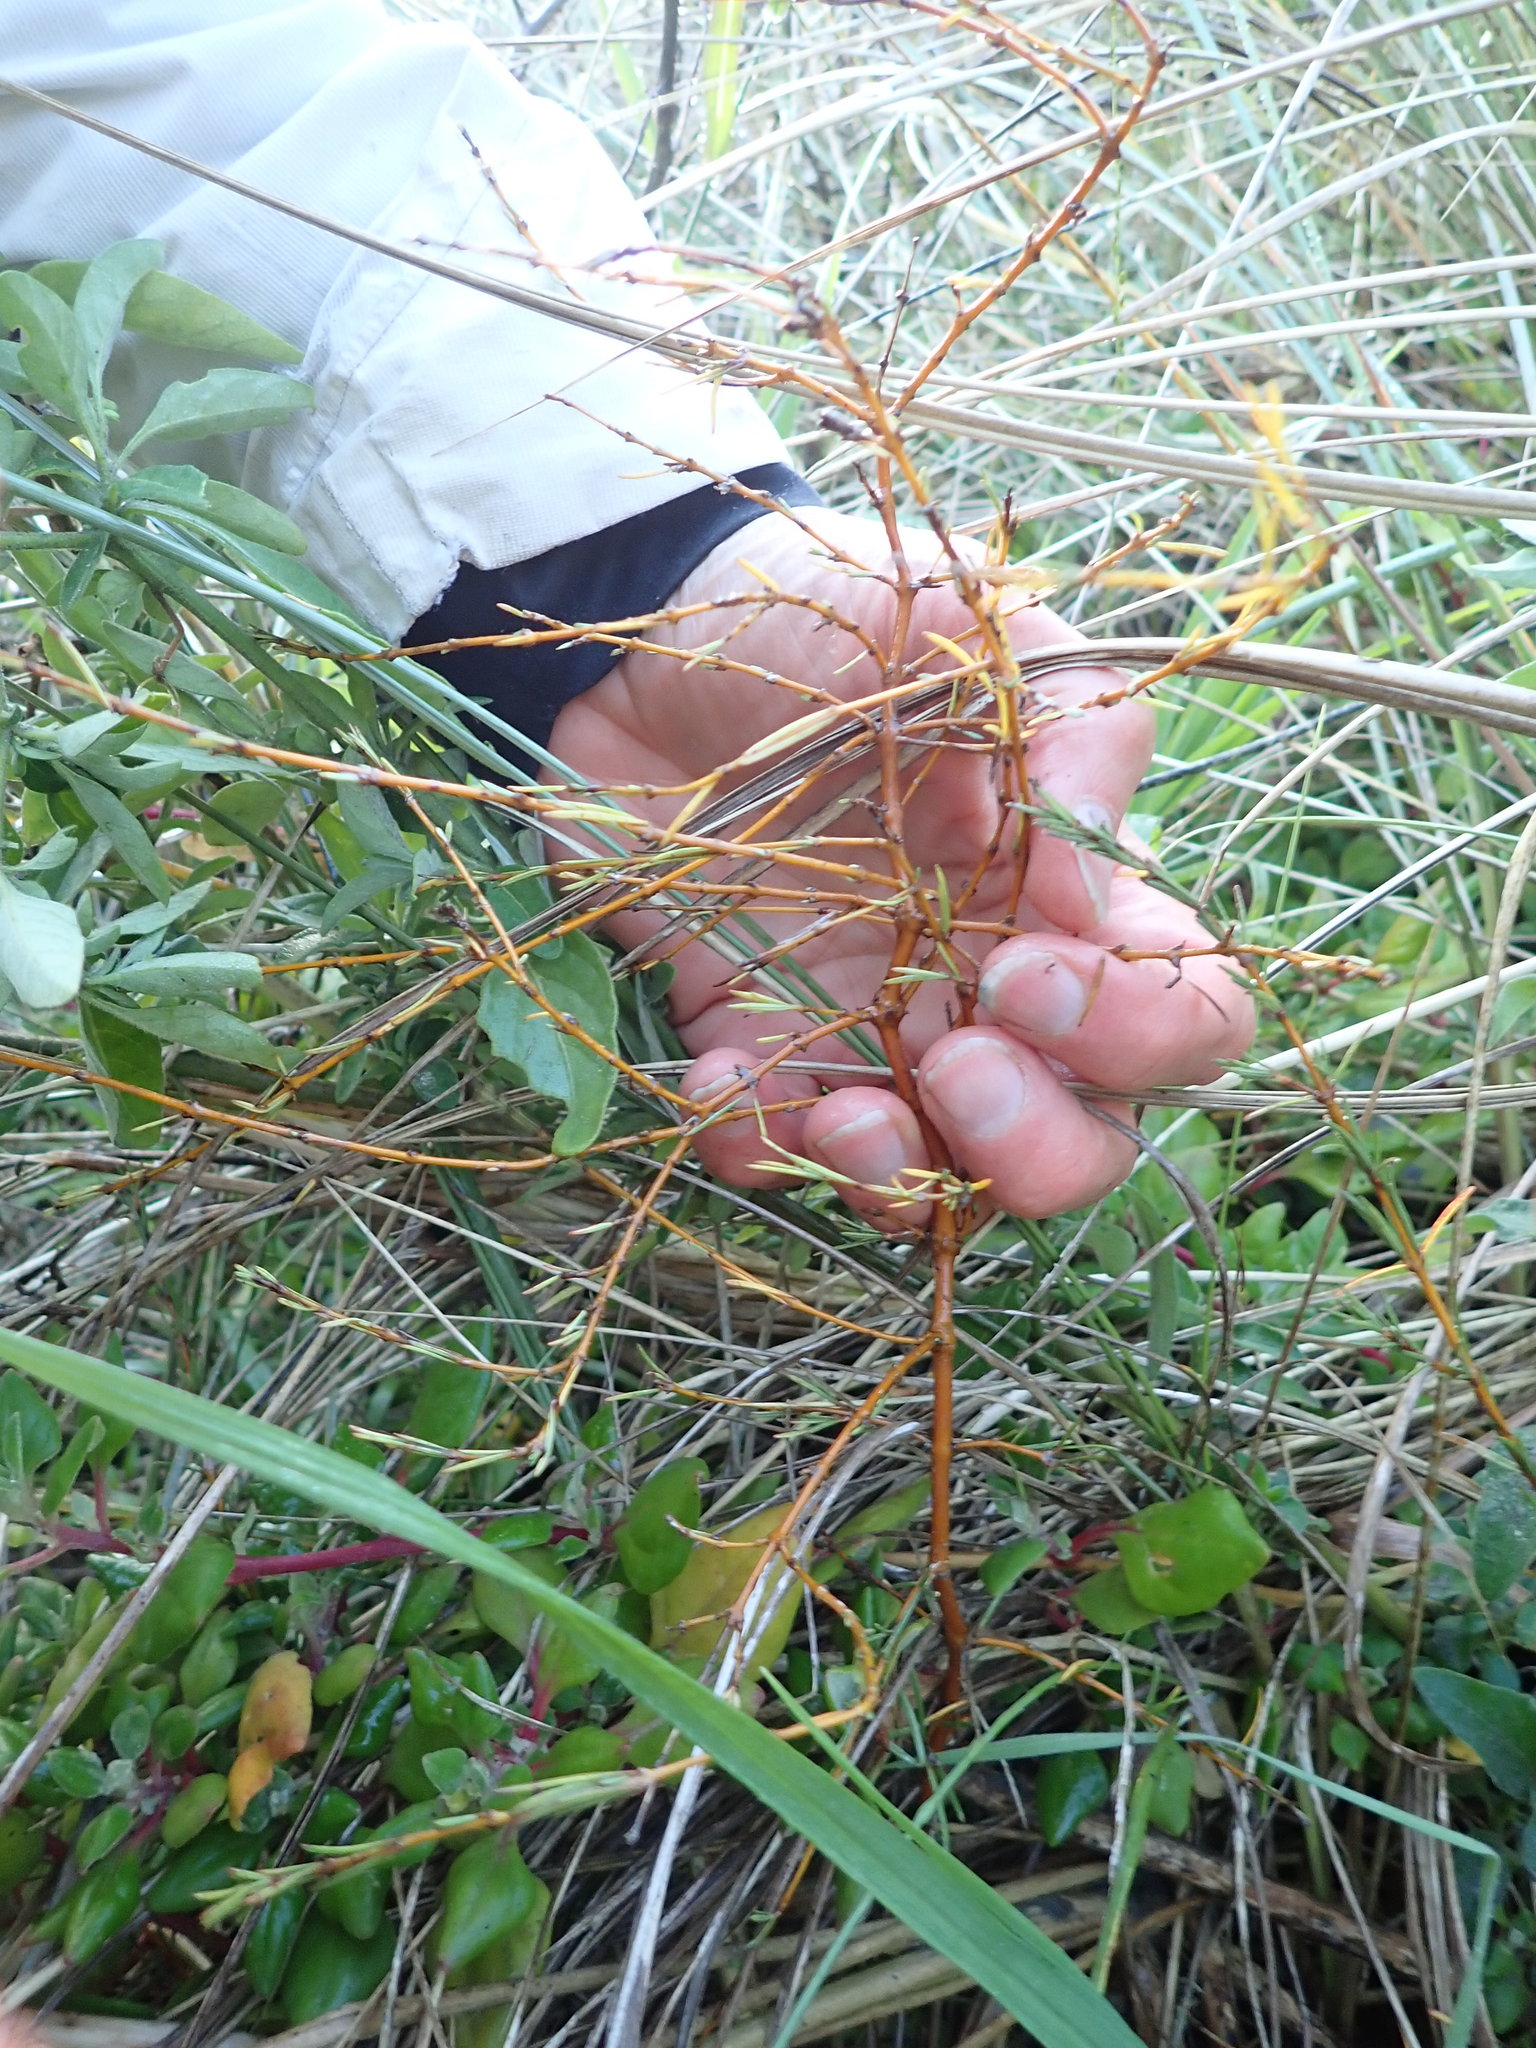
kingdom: Plantae
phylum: Tracheophyta
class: Magnoliopsida
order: Gentianales
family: Rubiaceae
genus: Coprosma
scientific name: Coprosma acerosa
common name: Sand coprosma
